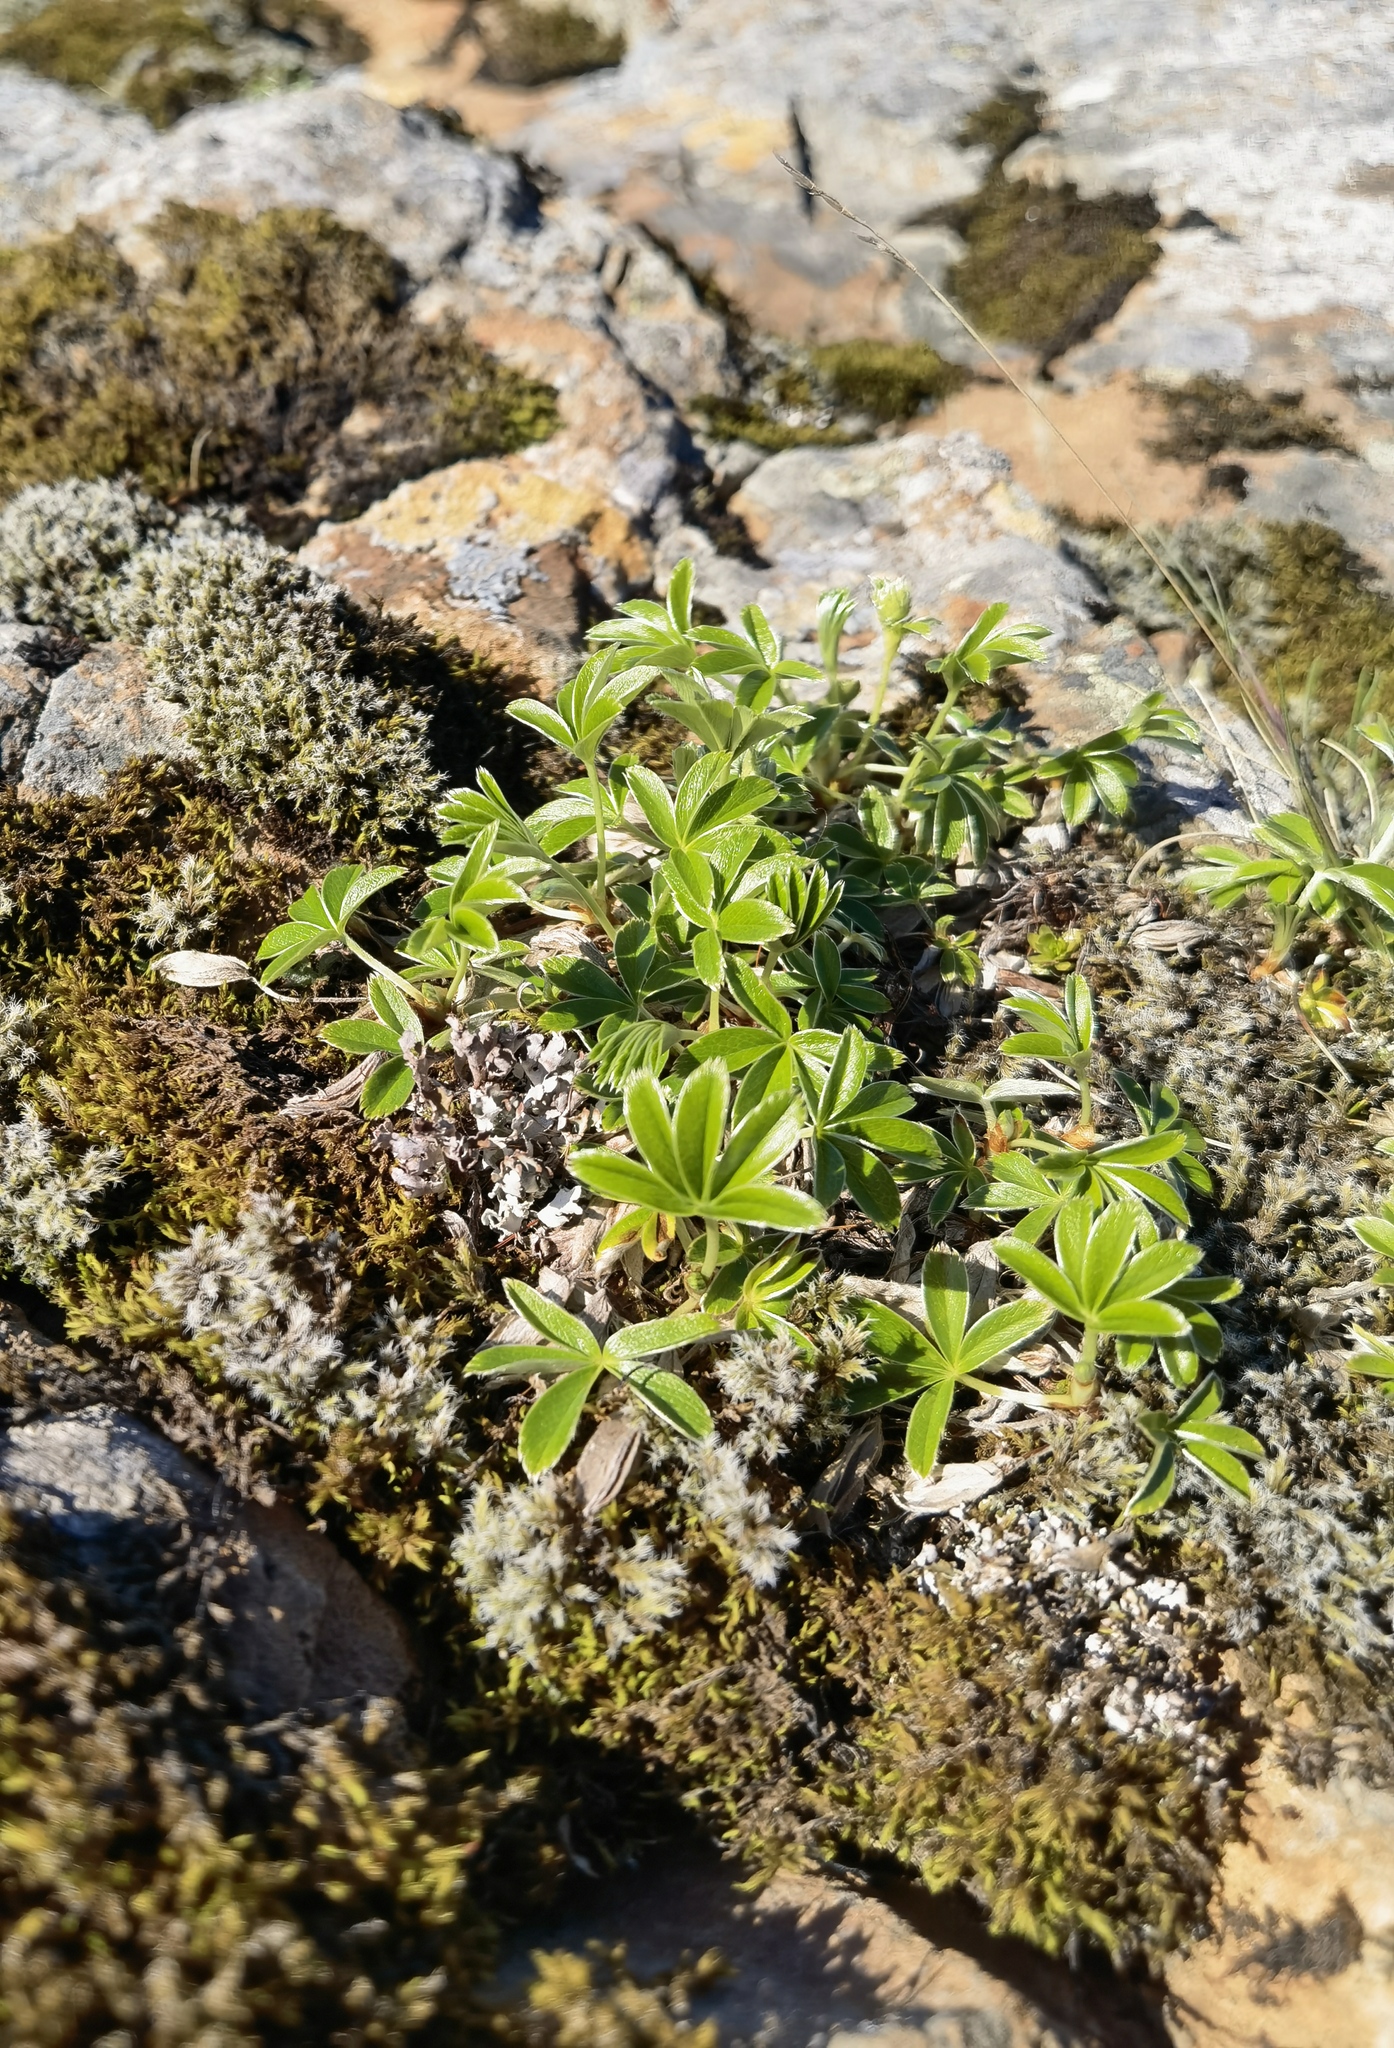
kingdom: Plantae
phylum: Tracheophyta
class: Magnoliopsida
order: Rosales
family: Rosaceae
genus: Alchemilla
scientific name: Alchemilla alpina
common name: Alpine lady's-mantle
